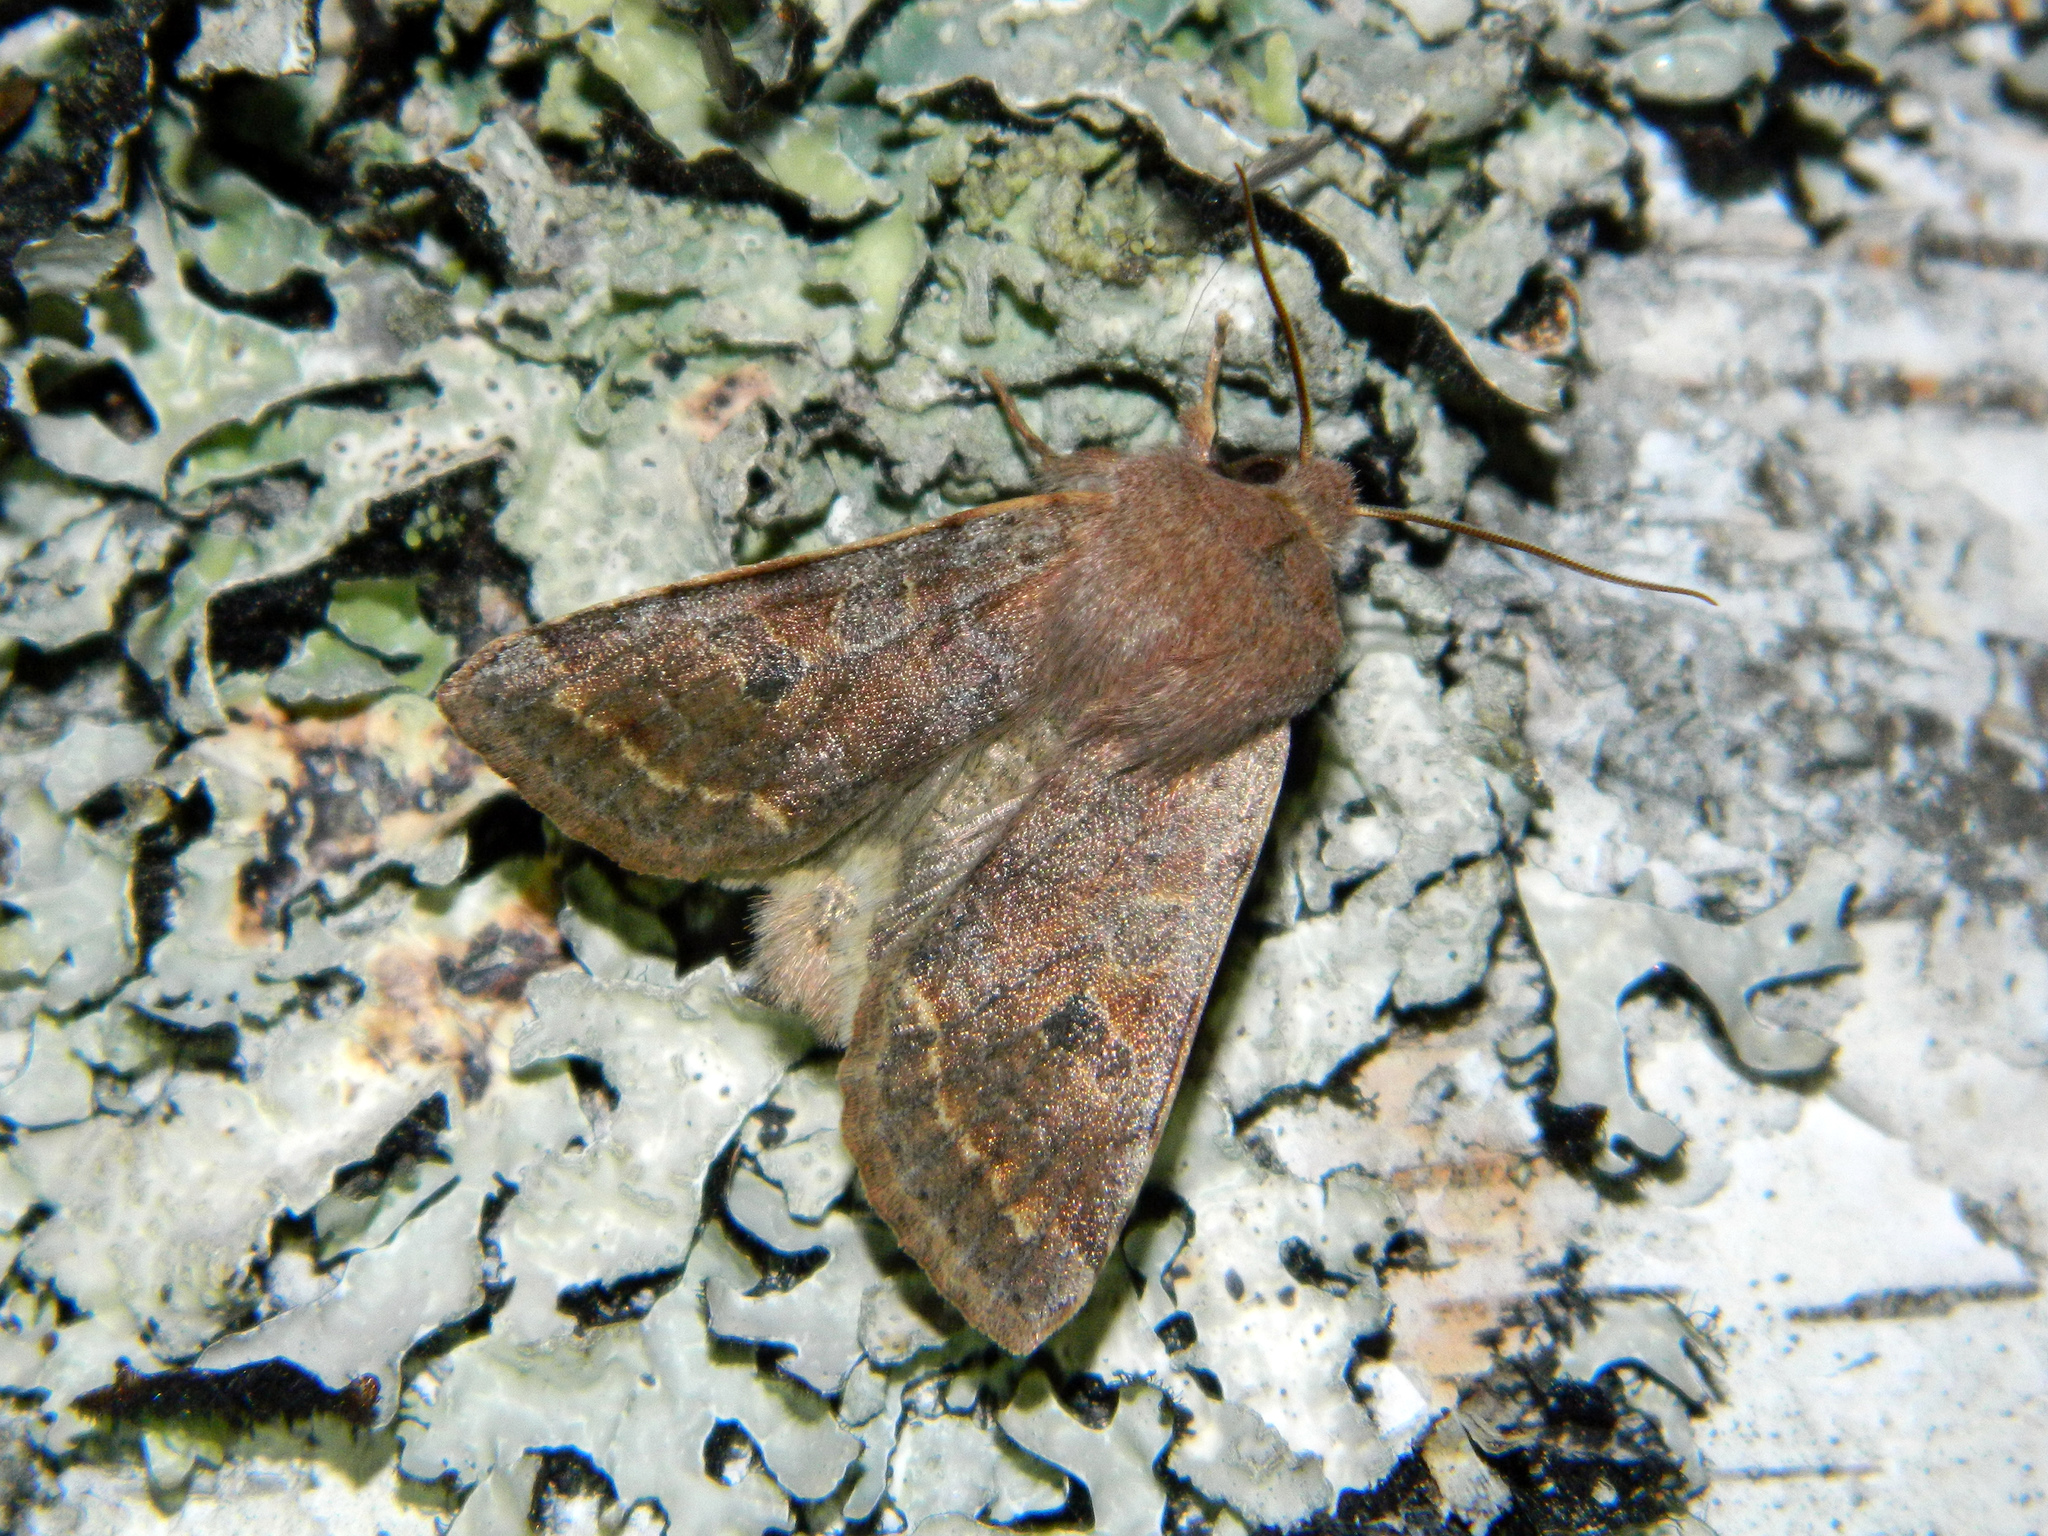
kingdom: Animalia
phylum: Arthropoda
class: Insecta
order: Lepidoptera
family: Noctuidae
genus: Orthosia
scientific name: Orthosia hibisci
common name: Green fruitworm
